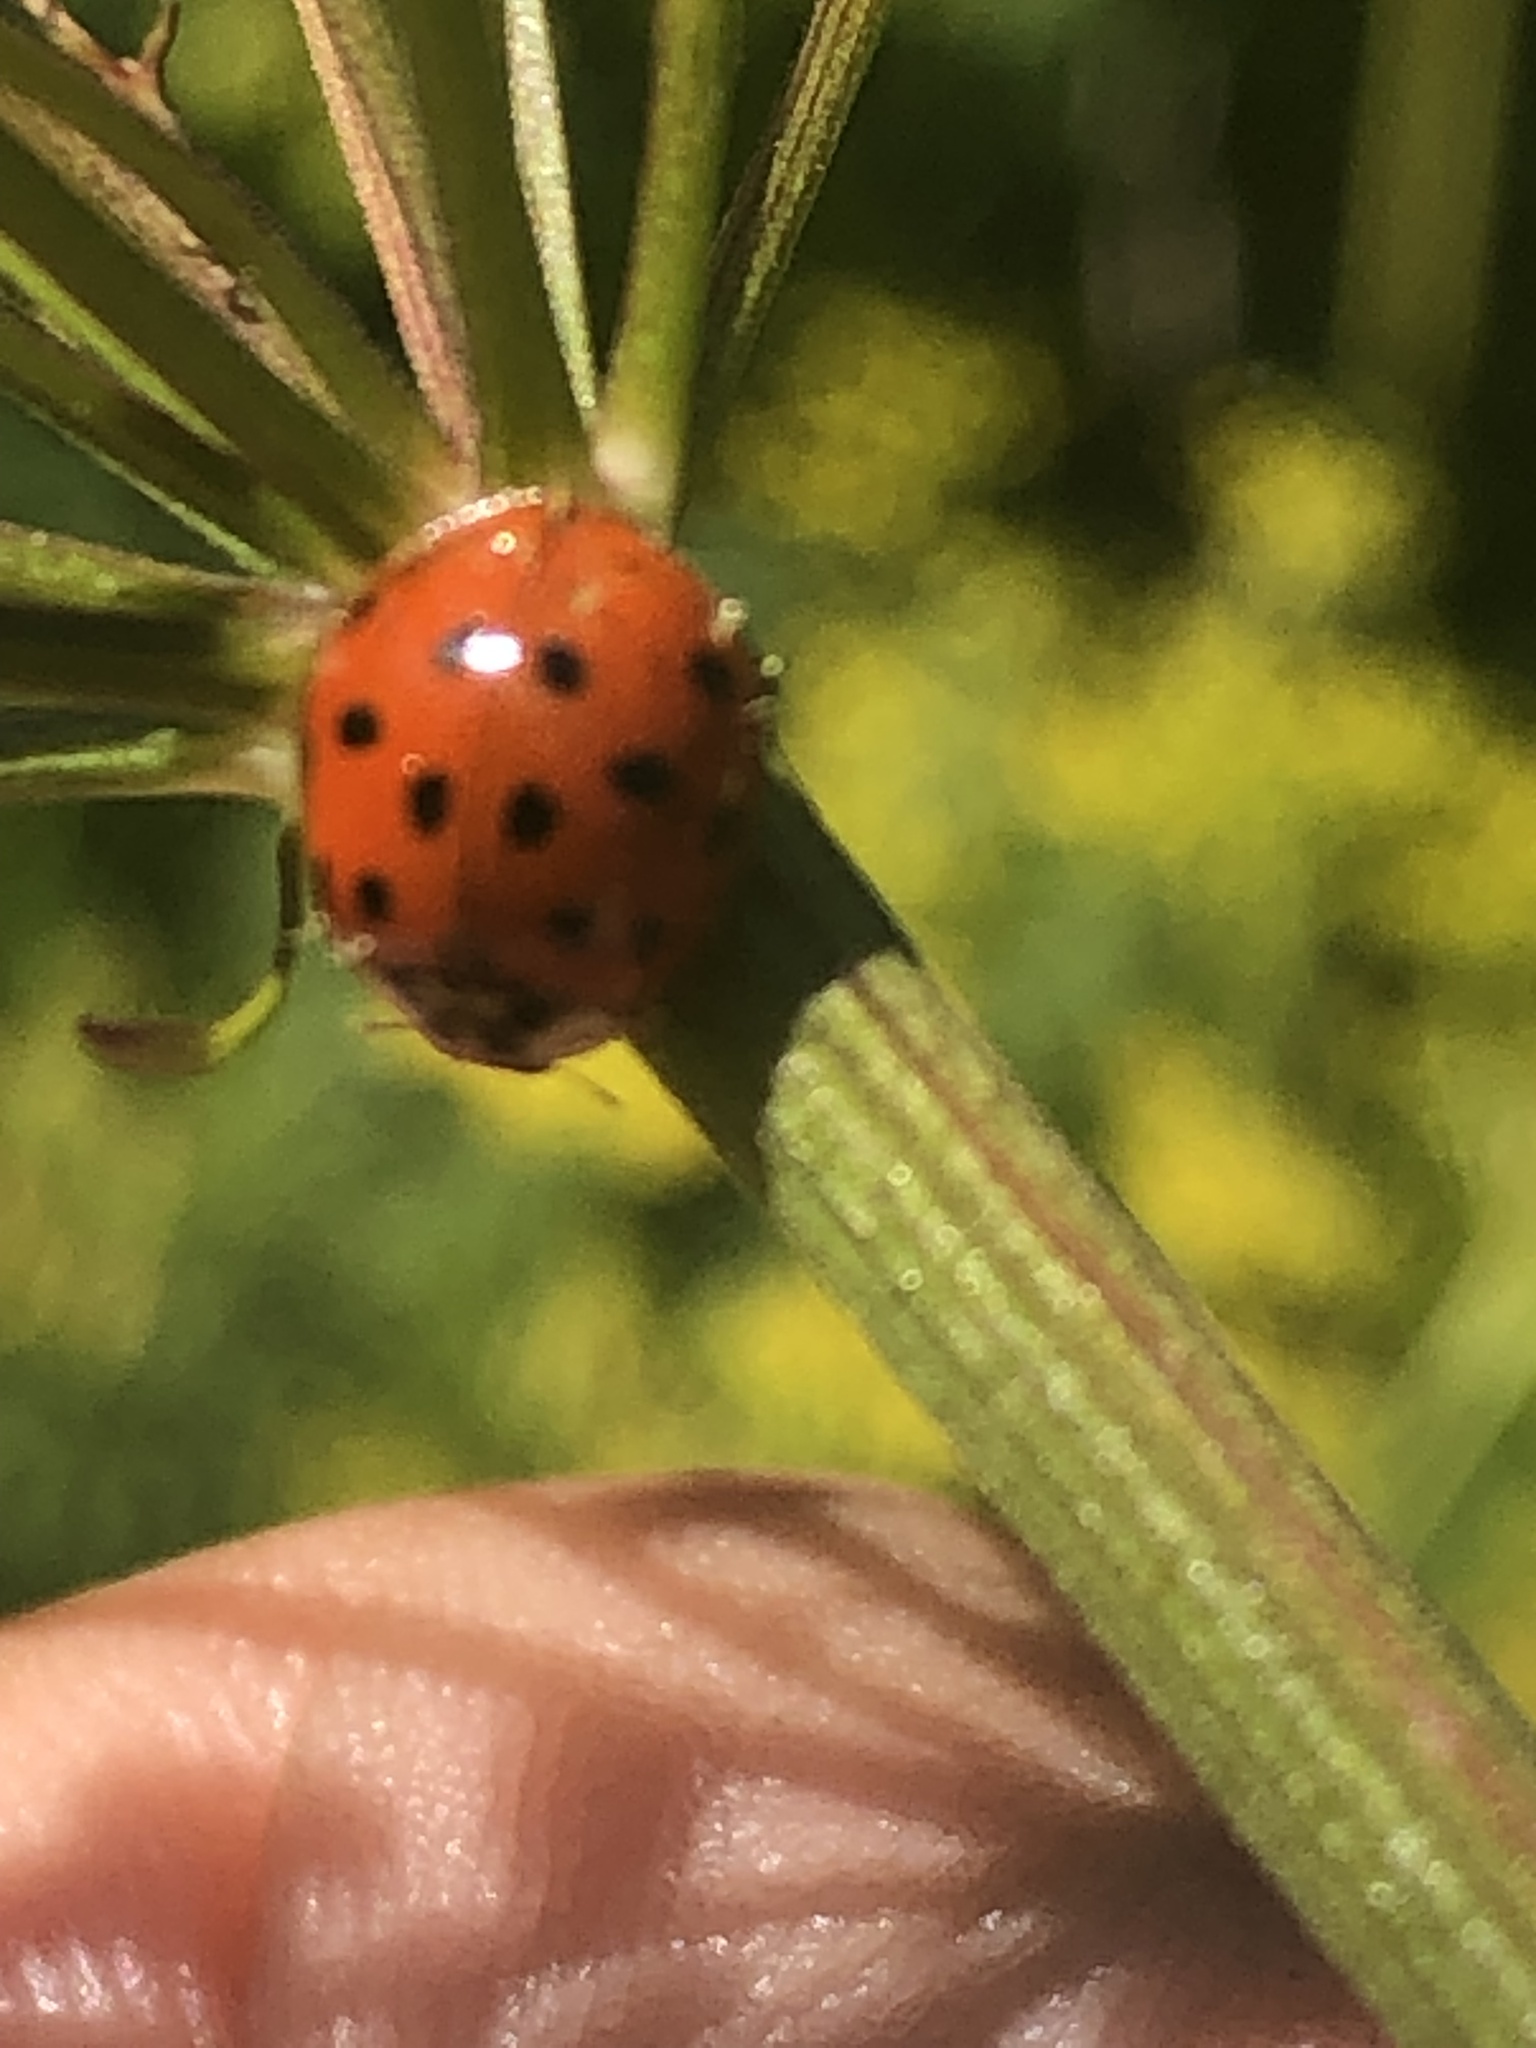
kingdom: Animalia
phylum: Arthropoda
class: Insecta
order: Coleoptera
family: Coccinellidae
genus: Harmonia
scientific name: Harmonia axyridis
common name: Harlequin ladybird
